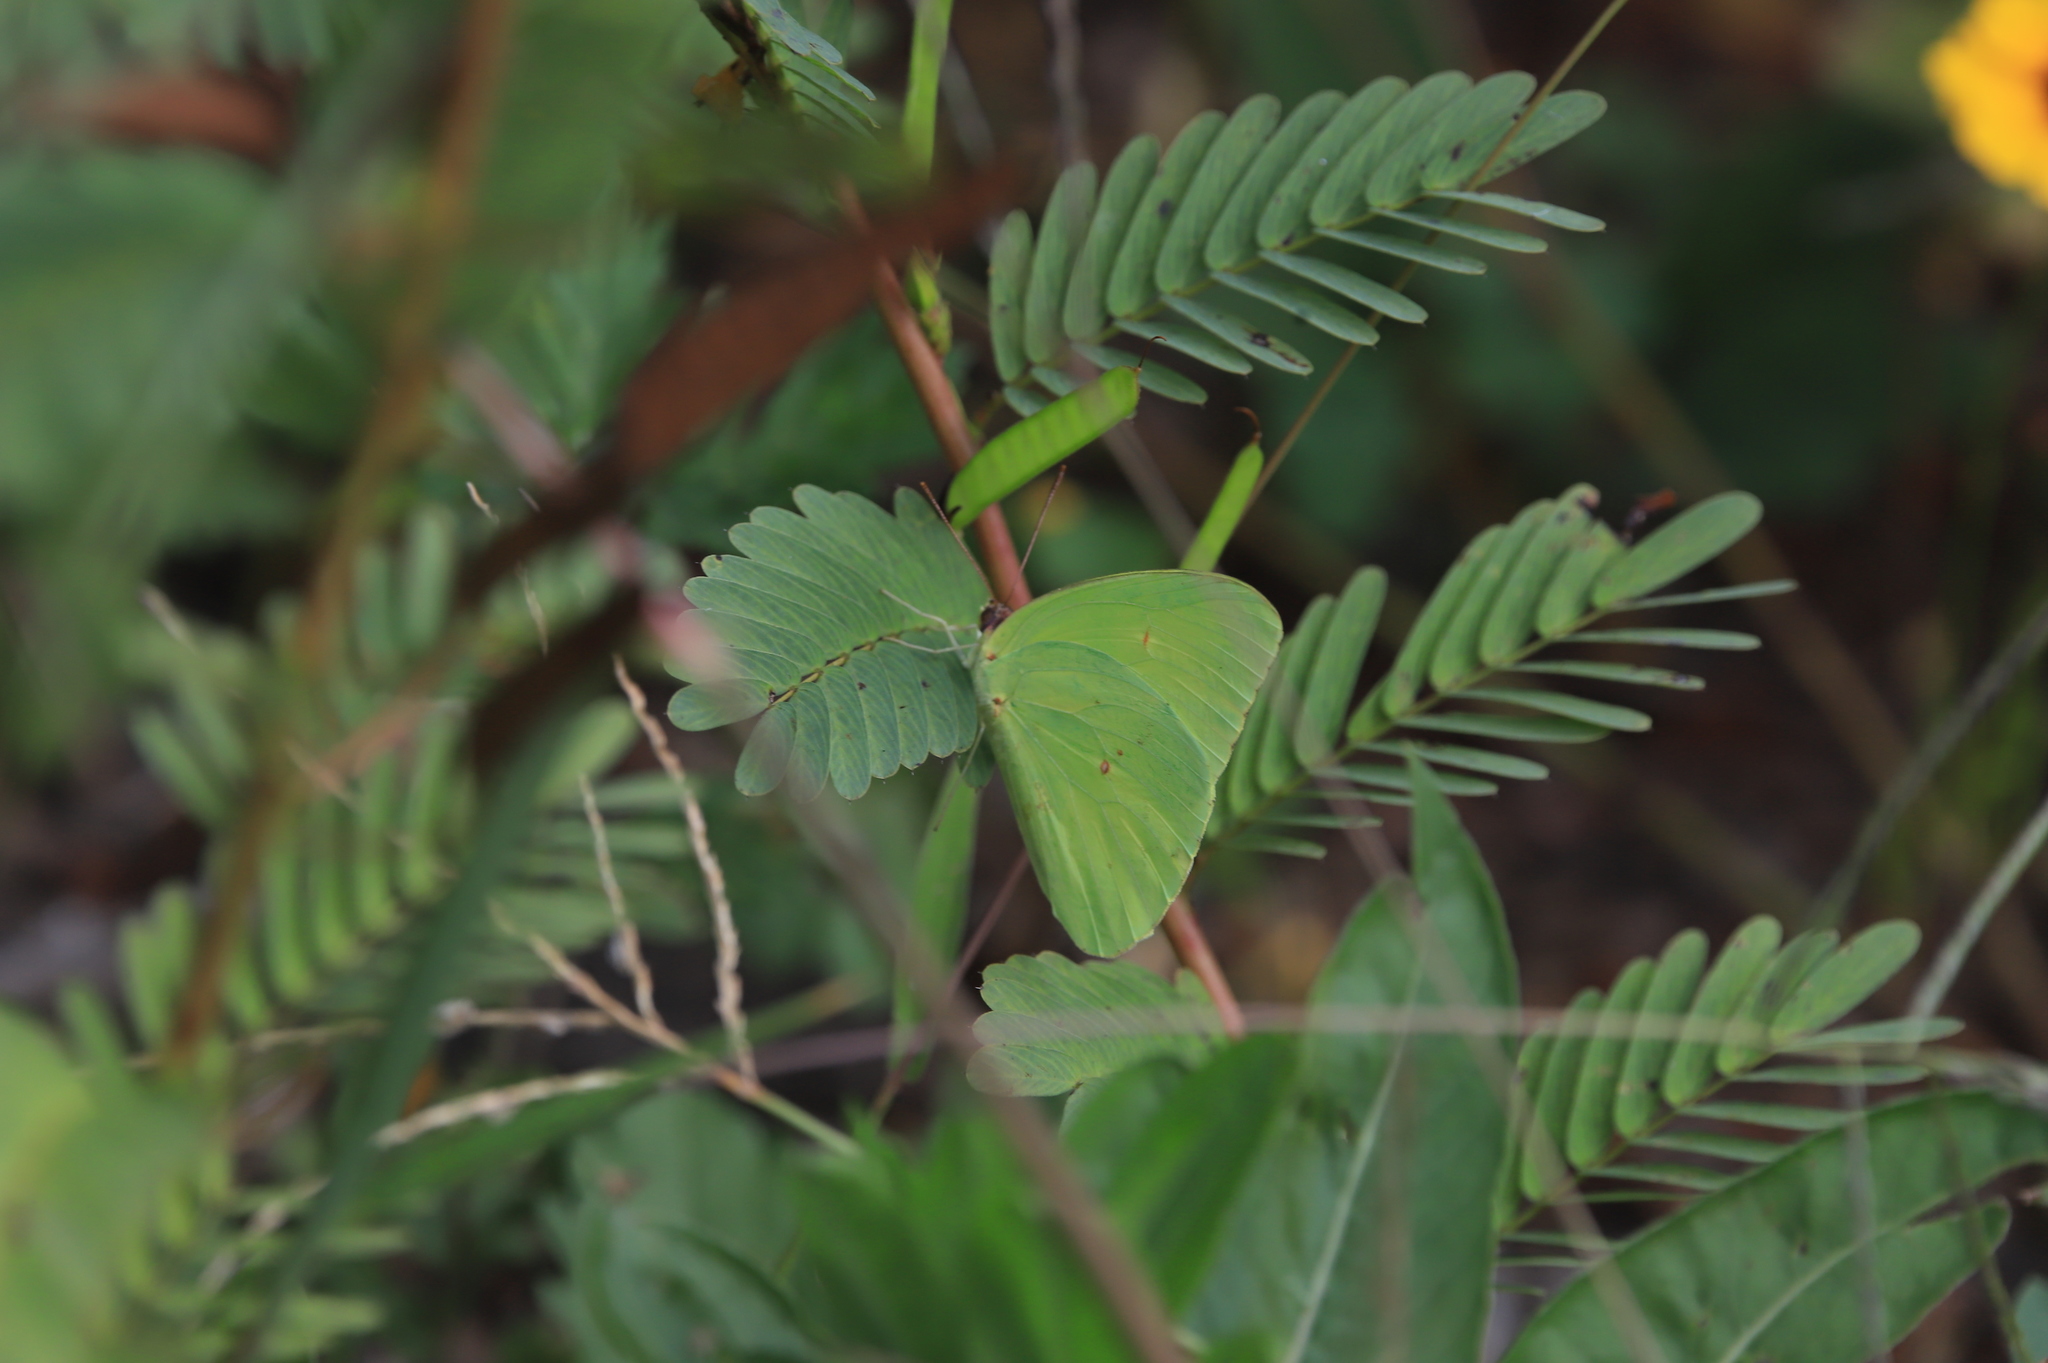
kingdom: Animalia
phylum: Arthropoda
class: Insecta
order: Lepidoptera
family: Pieridae
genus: Phoebis
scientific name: Phoebis sennae
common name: Cloudless sulphur
